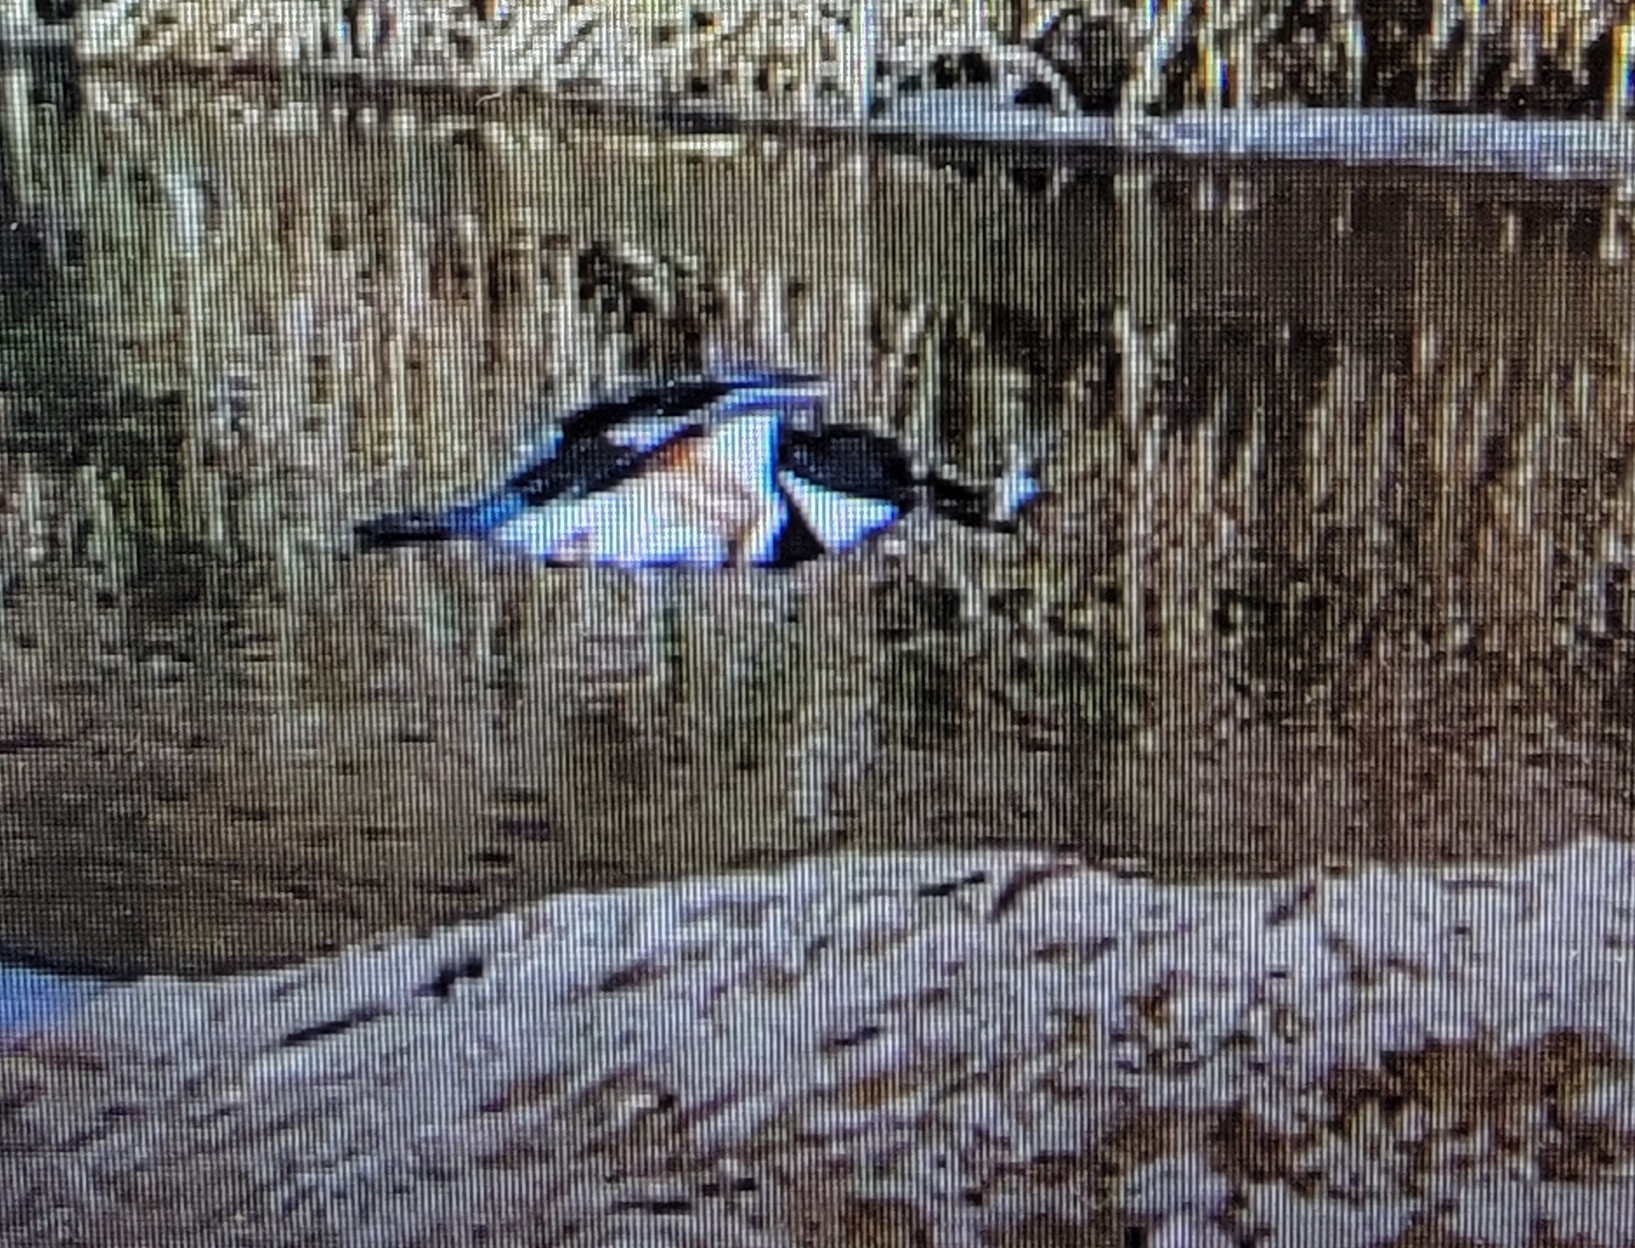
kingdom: Animalia
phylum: Chordata
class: Aves
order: Coraciiformes
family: Alcedinidae
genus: Megaceryle
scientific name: Megaceryle alcyon
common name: Belted kingfisher
